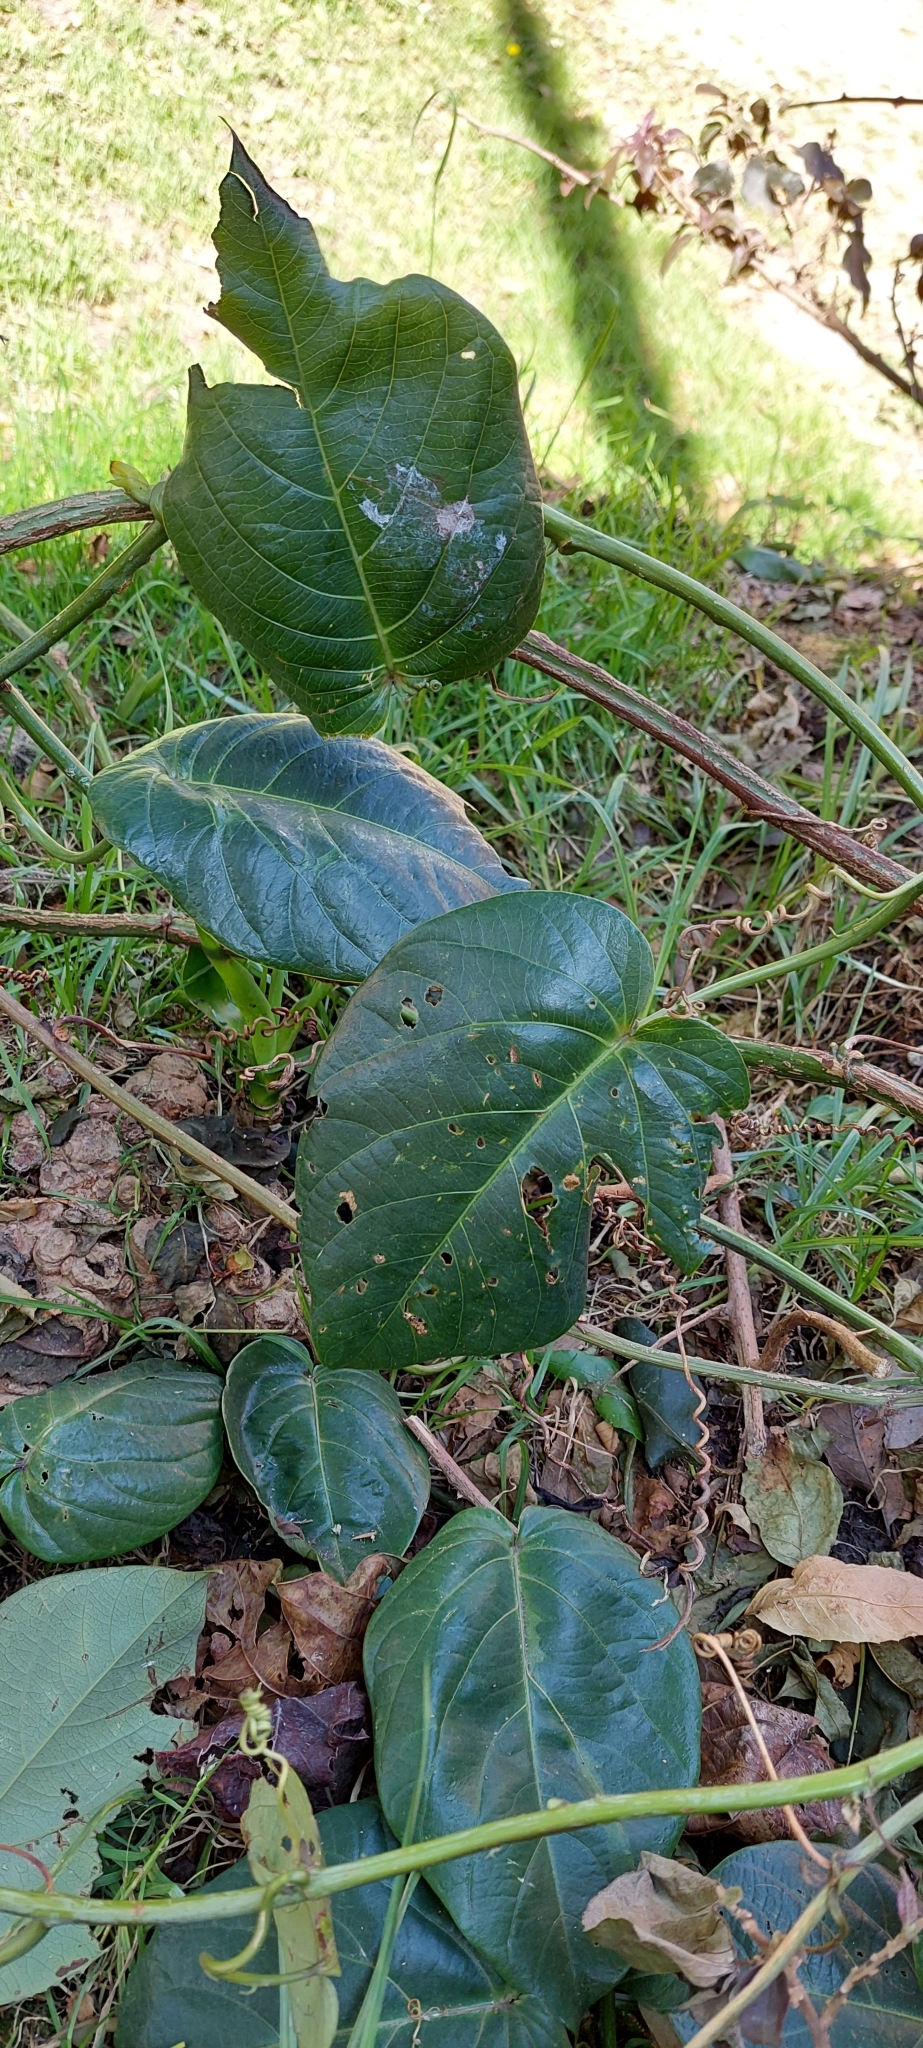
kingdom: Plantae
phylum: Tracheophyta
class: Magnoliopsida
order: Malpighiales
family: Passifloraceae
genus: Passiflora
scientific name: Passiflora ligularis
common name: Sweet granadilla
